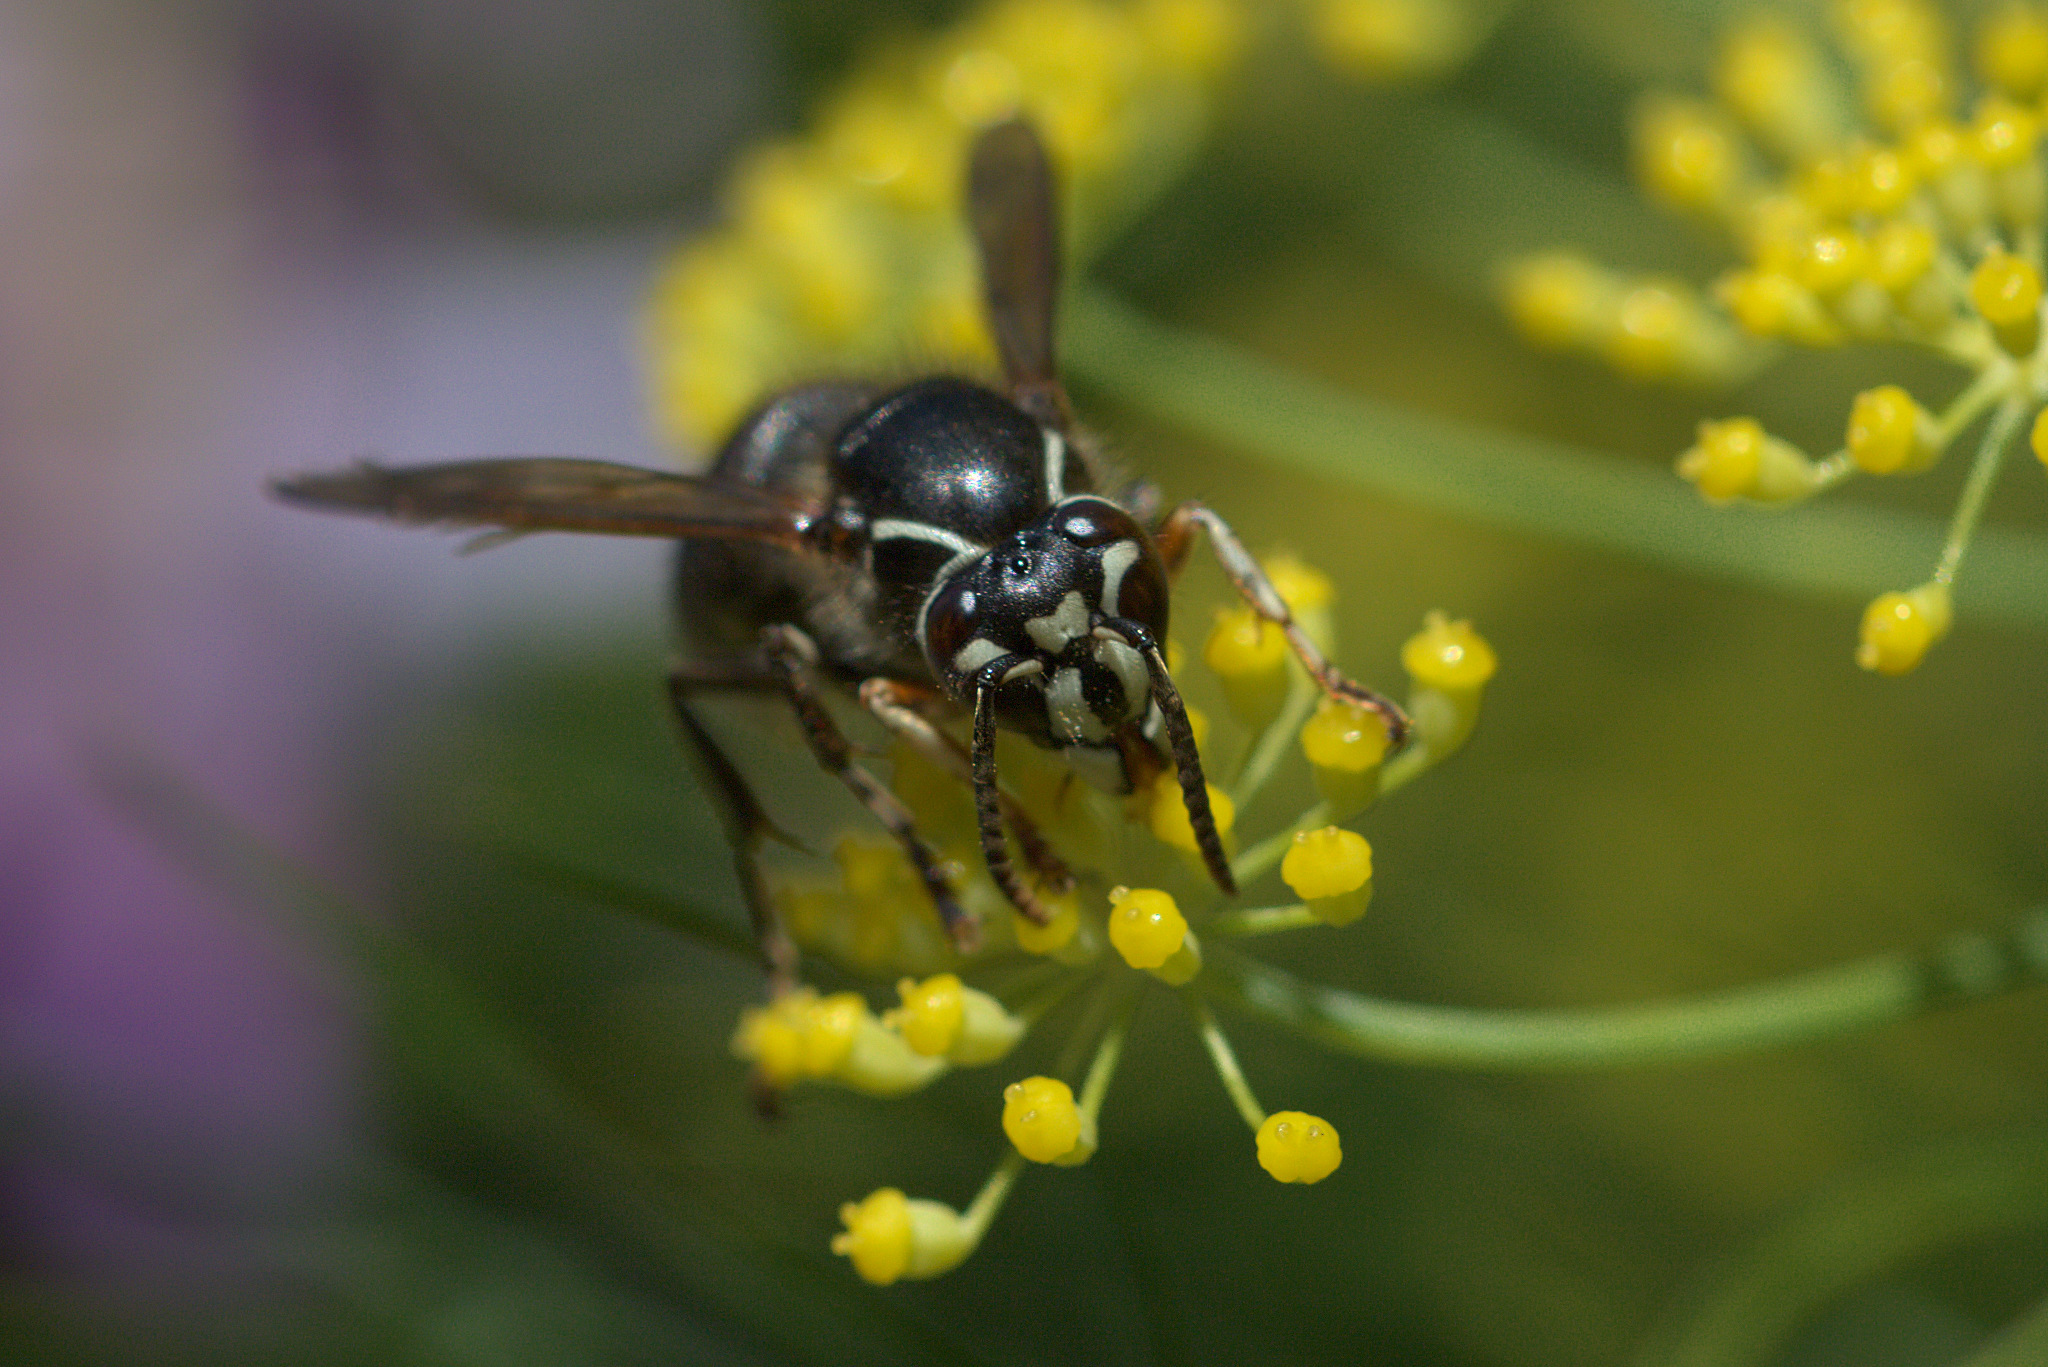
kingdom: Animalia
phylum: Arthropoda
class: Insecta
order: Hymenoptera
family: Vespidae
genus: Dolichovespula
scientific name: Dolichovespula maculata
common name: Bald-faced hornet
